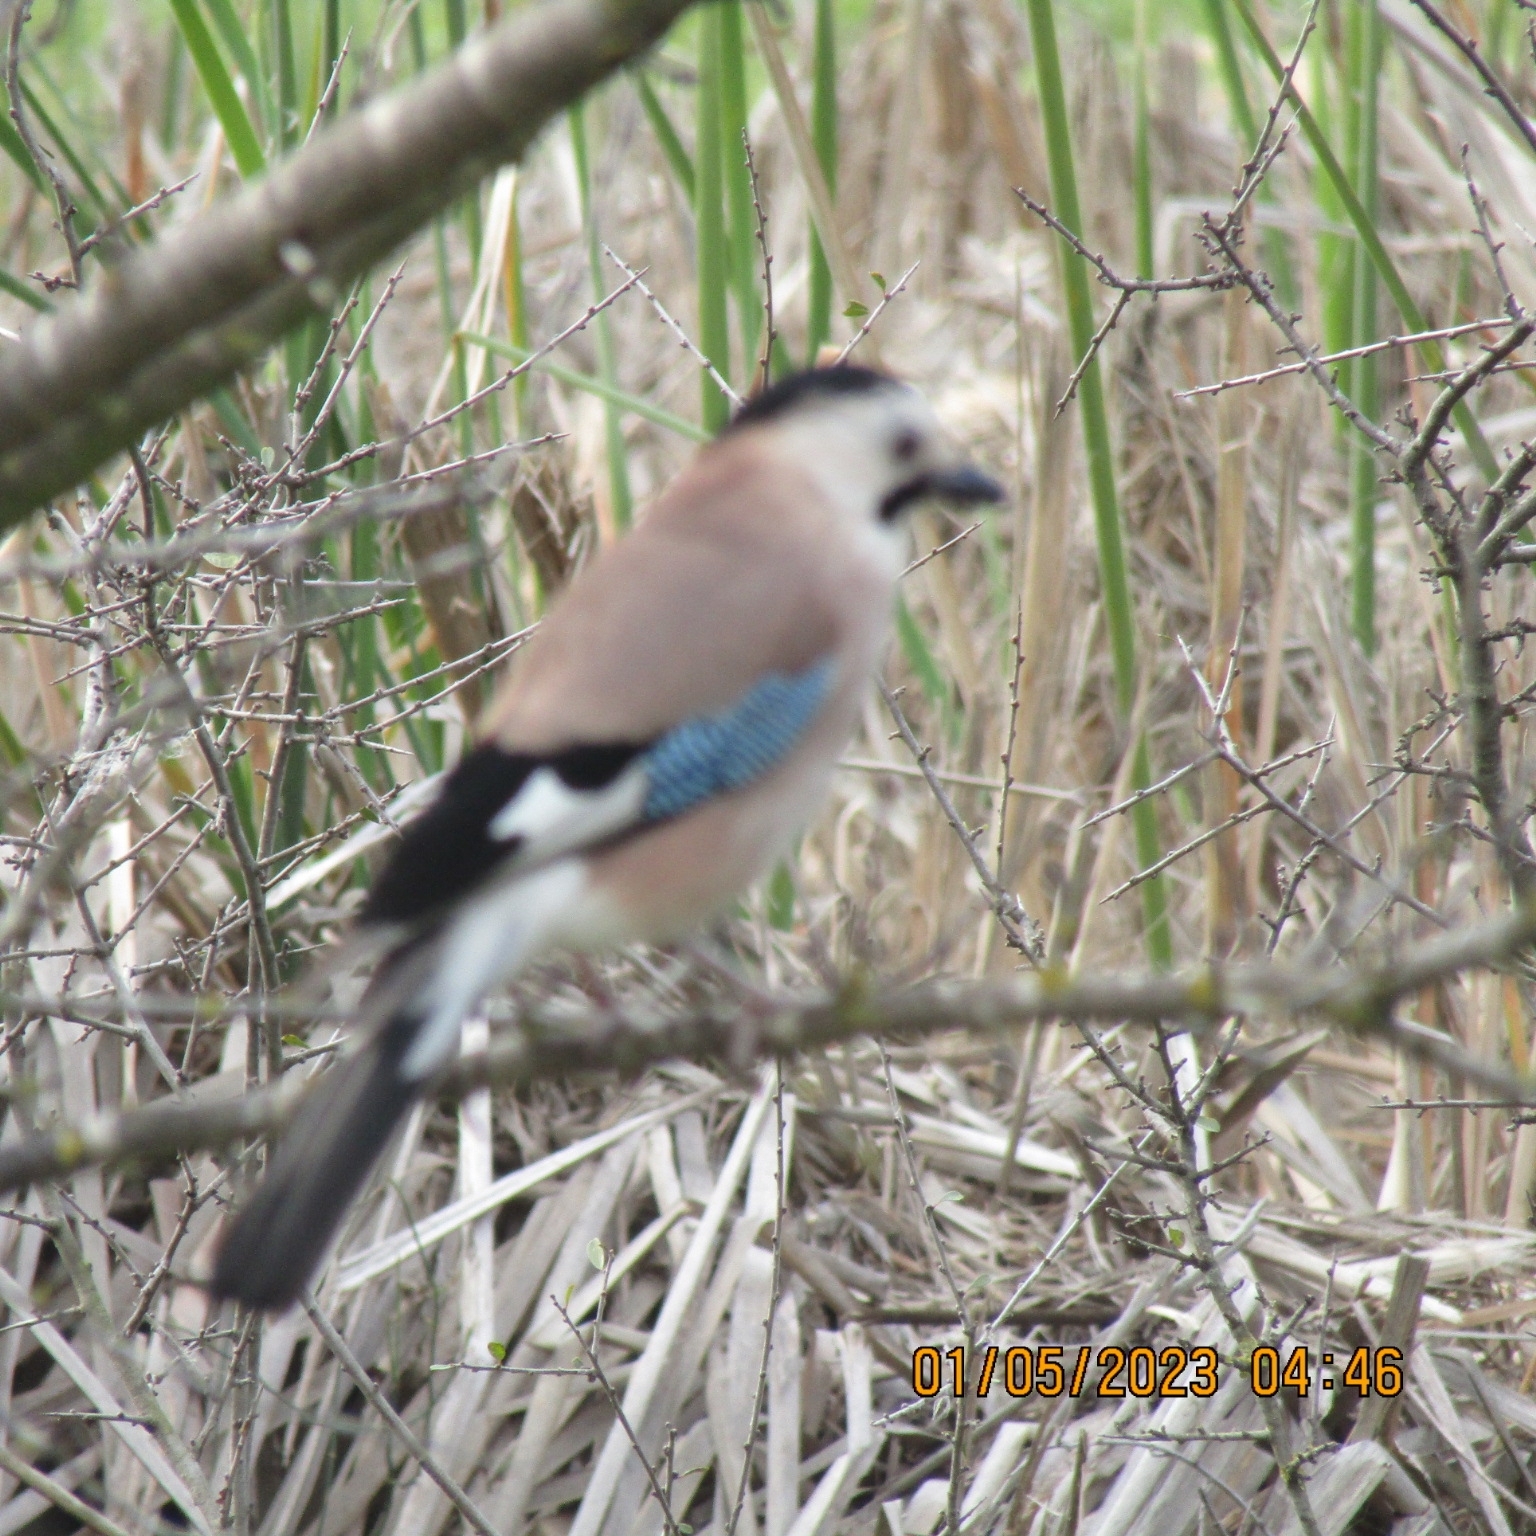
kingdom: Animalia
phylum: Chordata
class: Aves
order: Passeriformes
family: Corvidae
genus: Garrulus
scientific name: Garrulus glandarius
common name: Eurasian jay
